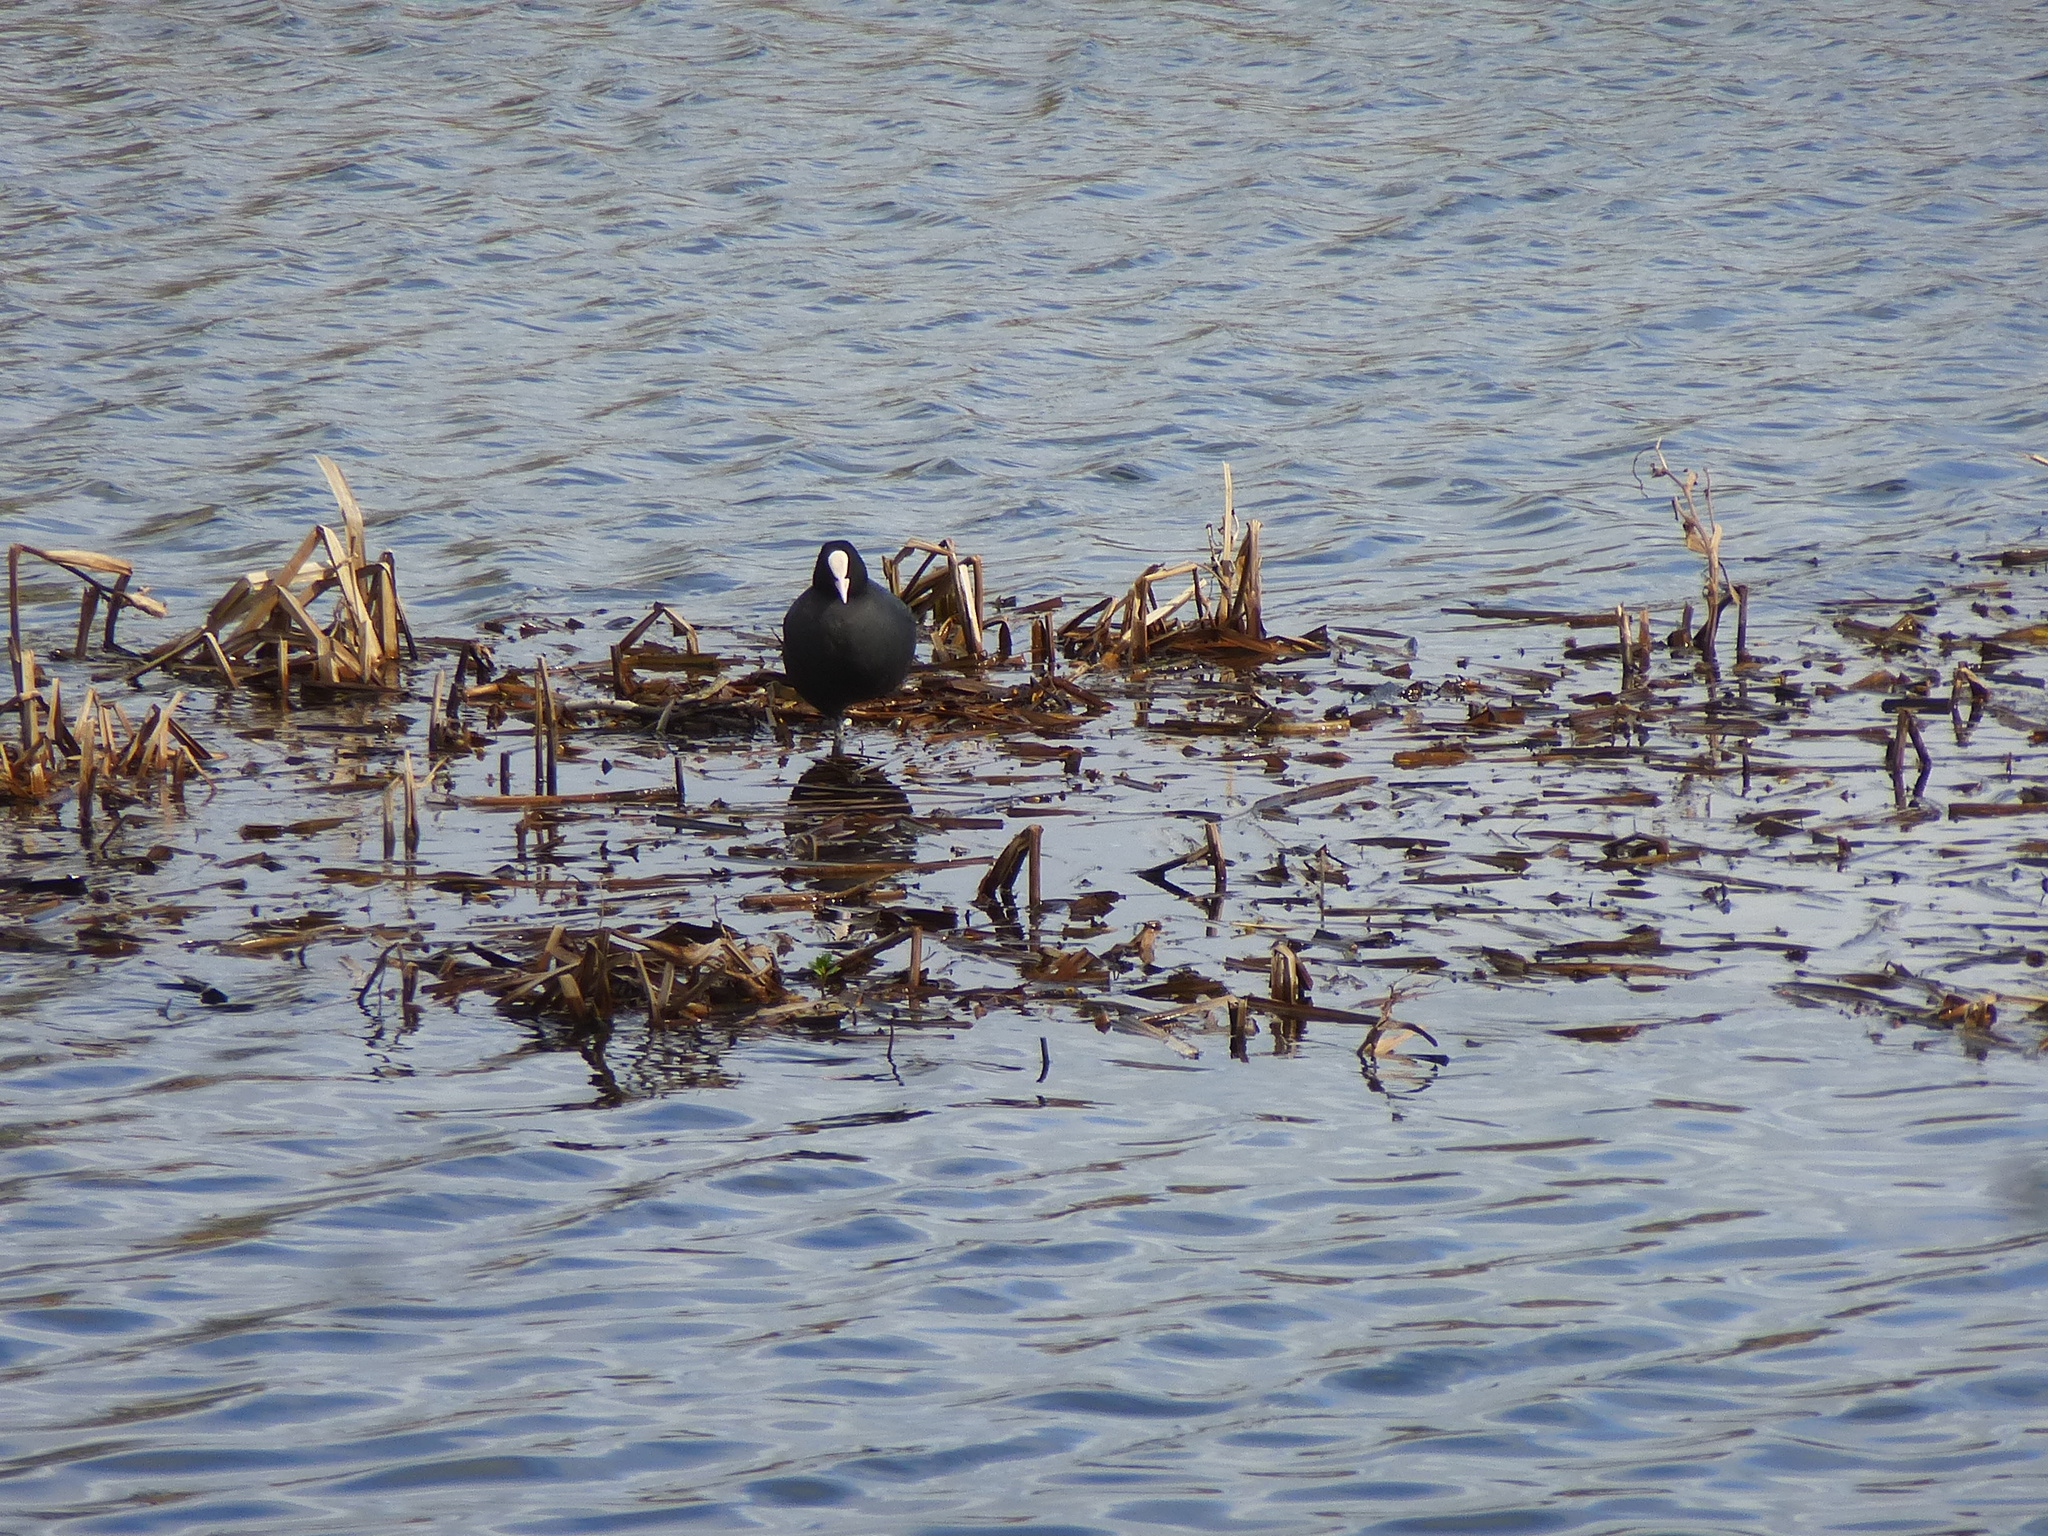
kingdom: Animalia
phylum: Chordata
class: Aves
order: Gruiformes
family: Rallidae
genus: Fulica
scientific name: Fulica atra
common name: Eurasian coot
